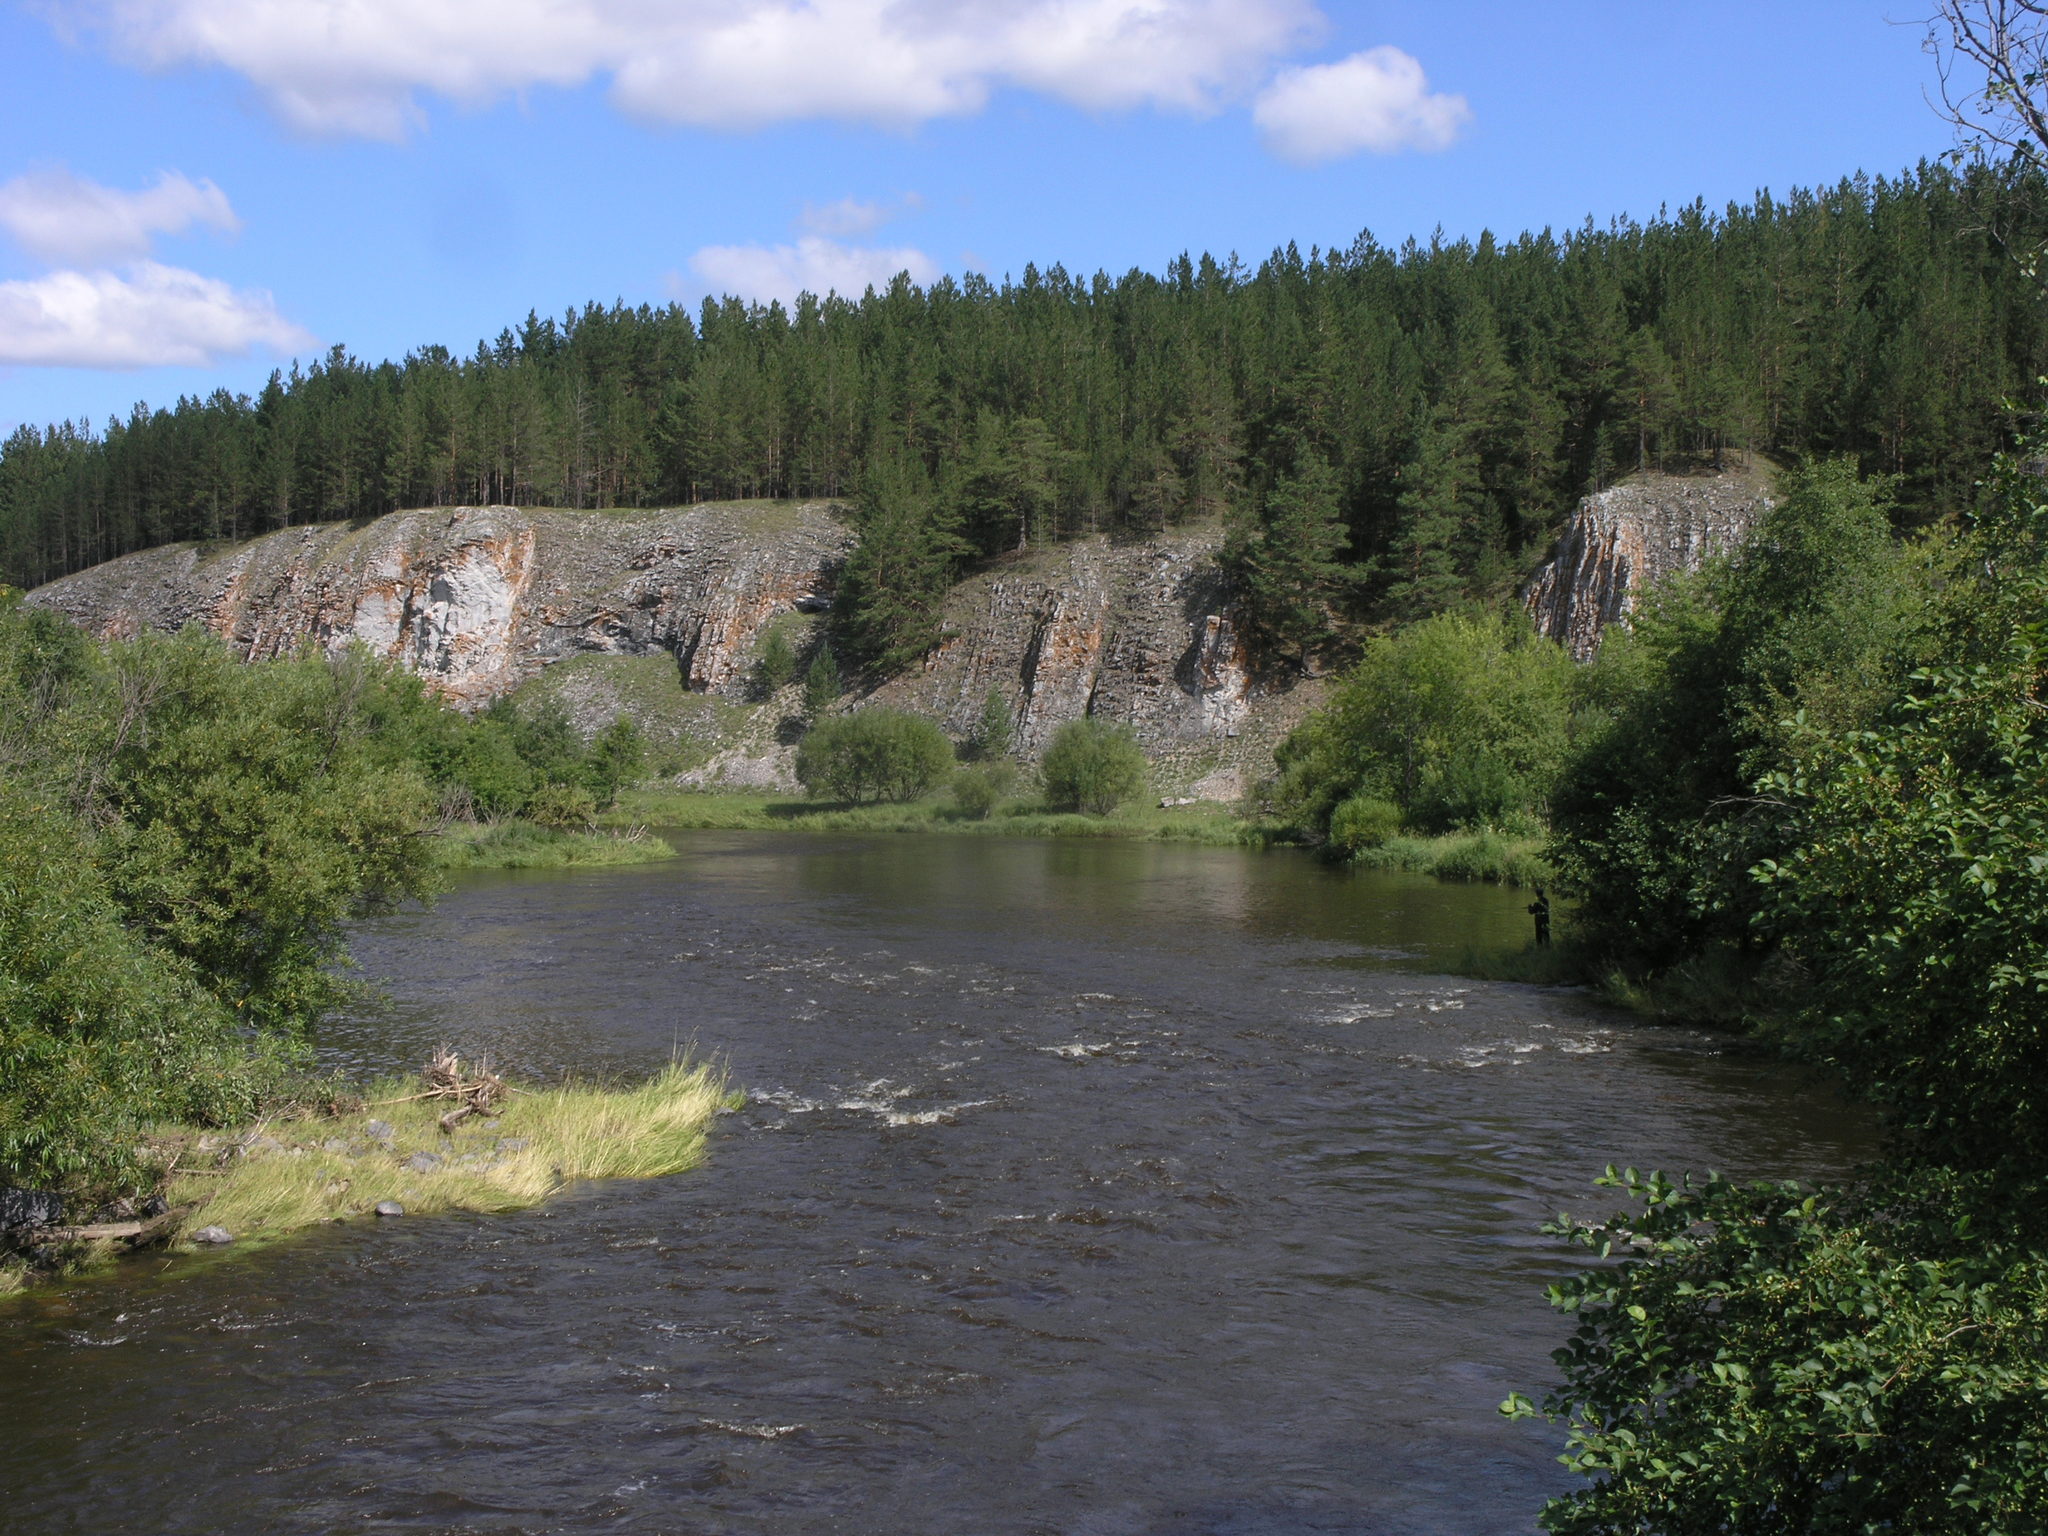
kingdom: Plantae
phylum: Tracheophyta
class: Pinopsida
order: Pinales
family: Pinaceae
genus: Pinus
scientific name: Pinus sylvestris
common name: Scots pine
